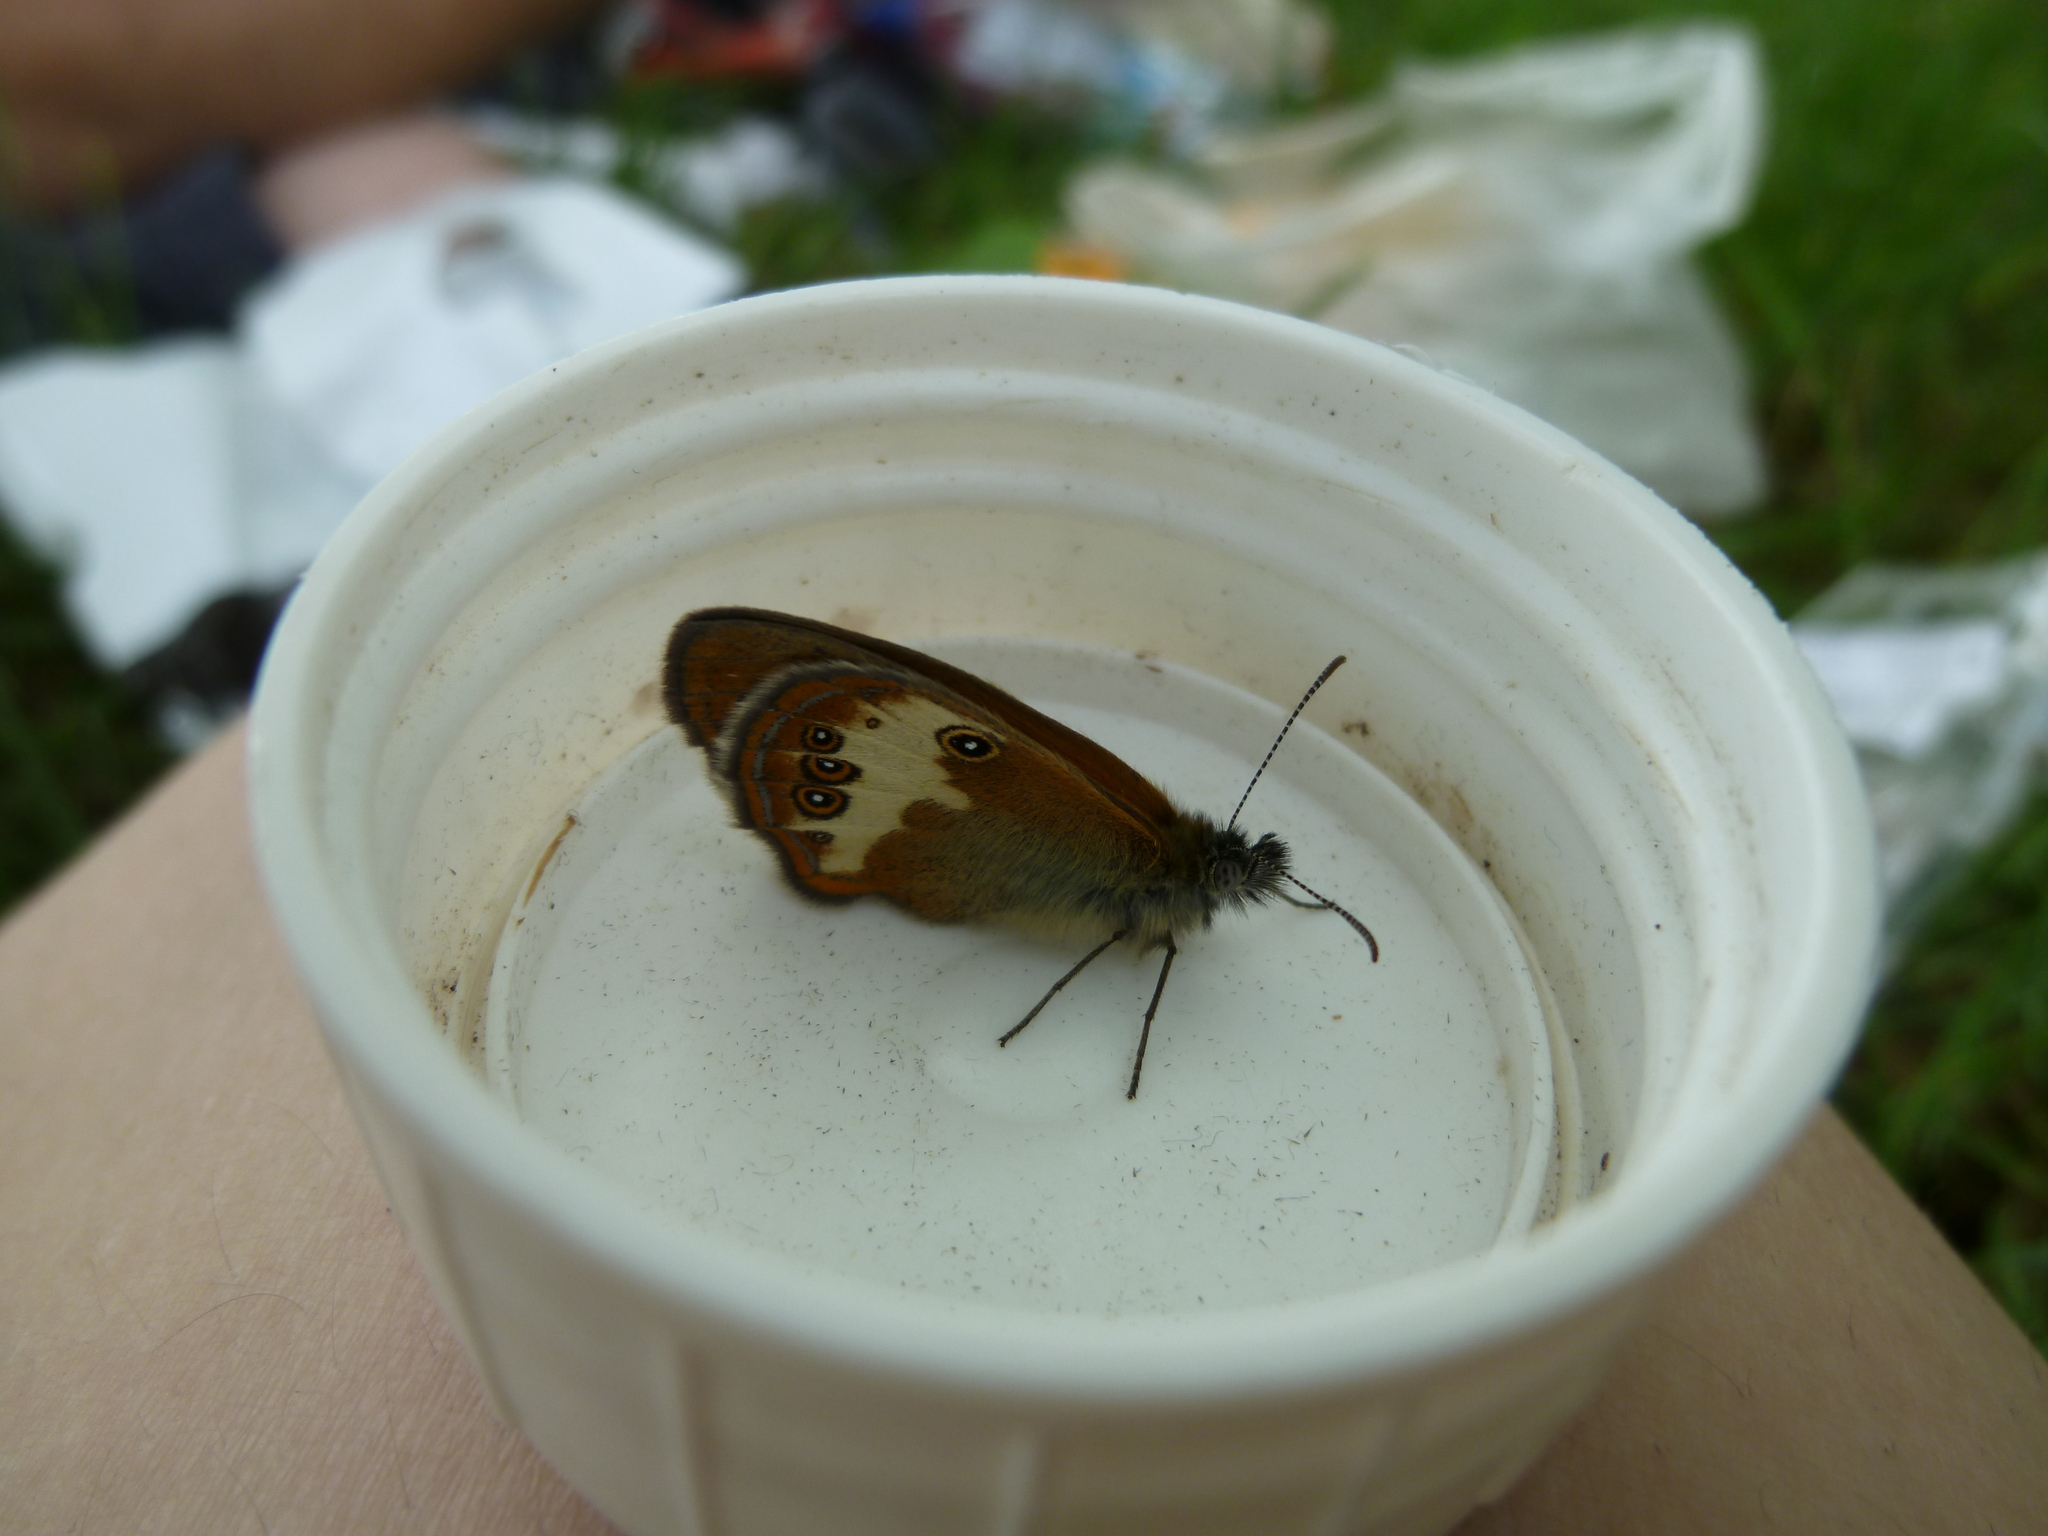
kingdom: Animalia
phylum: Arthropoda
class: Insecta
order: Lepidoptera
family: Nymphalidae
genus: Coenonympha
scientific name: Coenonympha arcania
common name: Pearly heath
